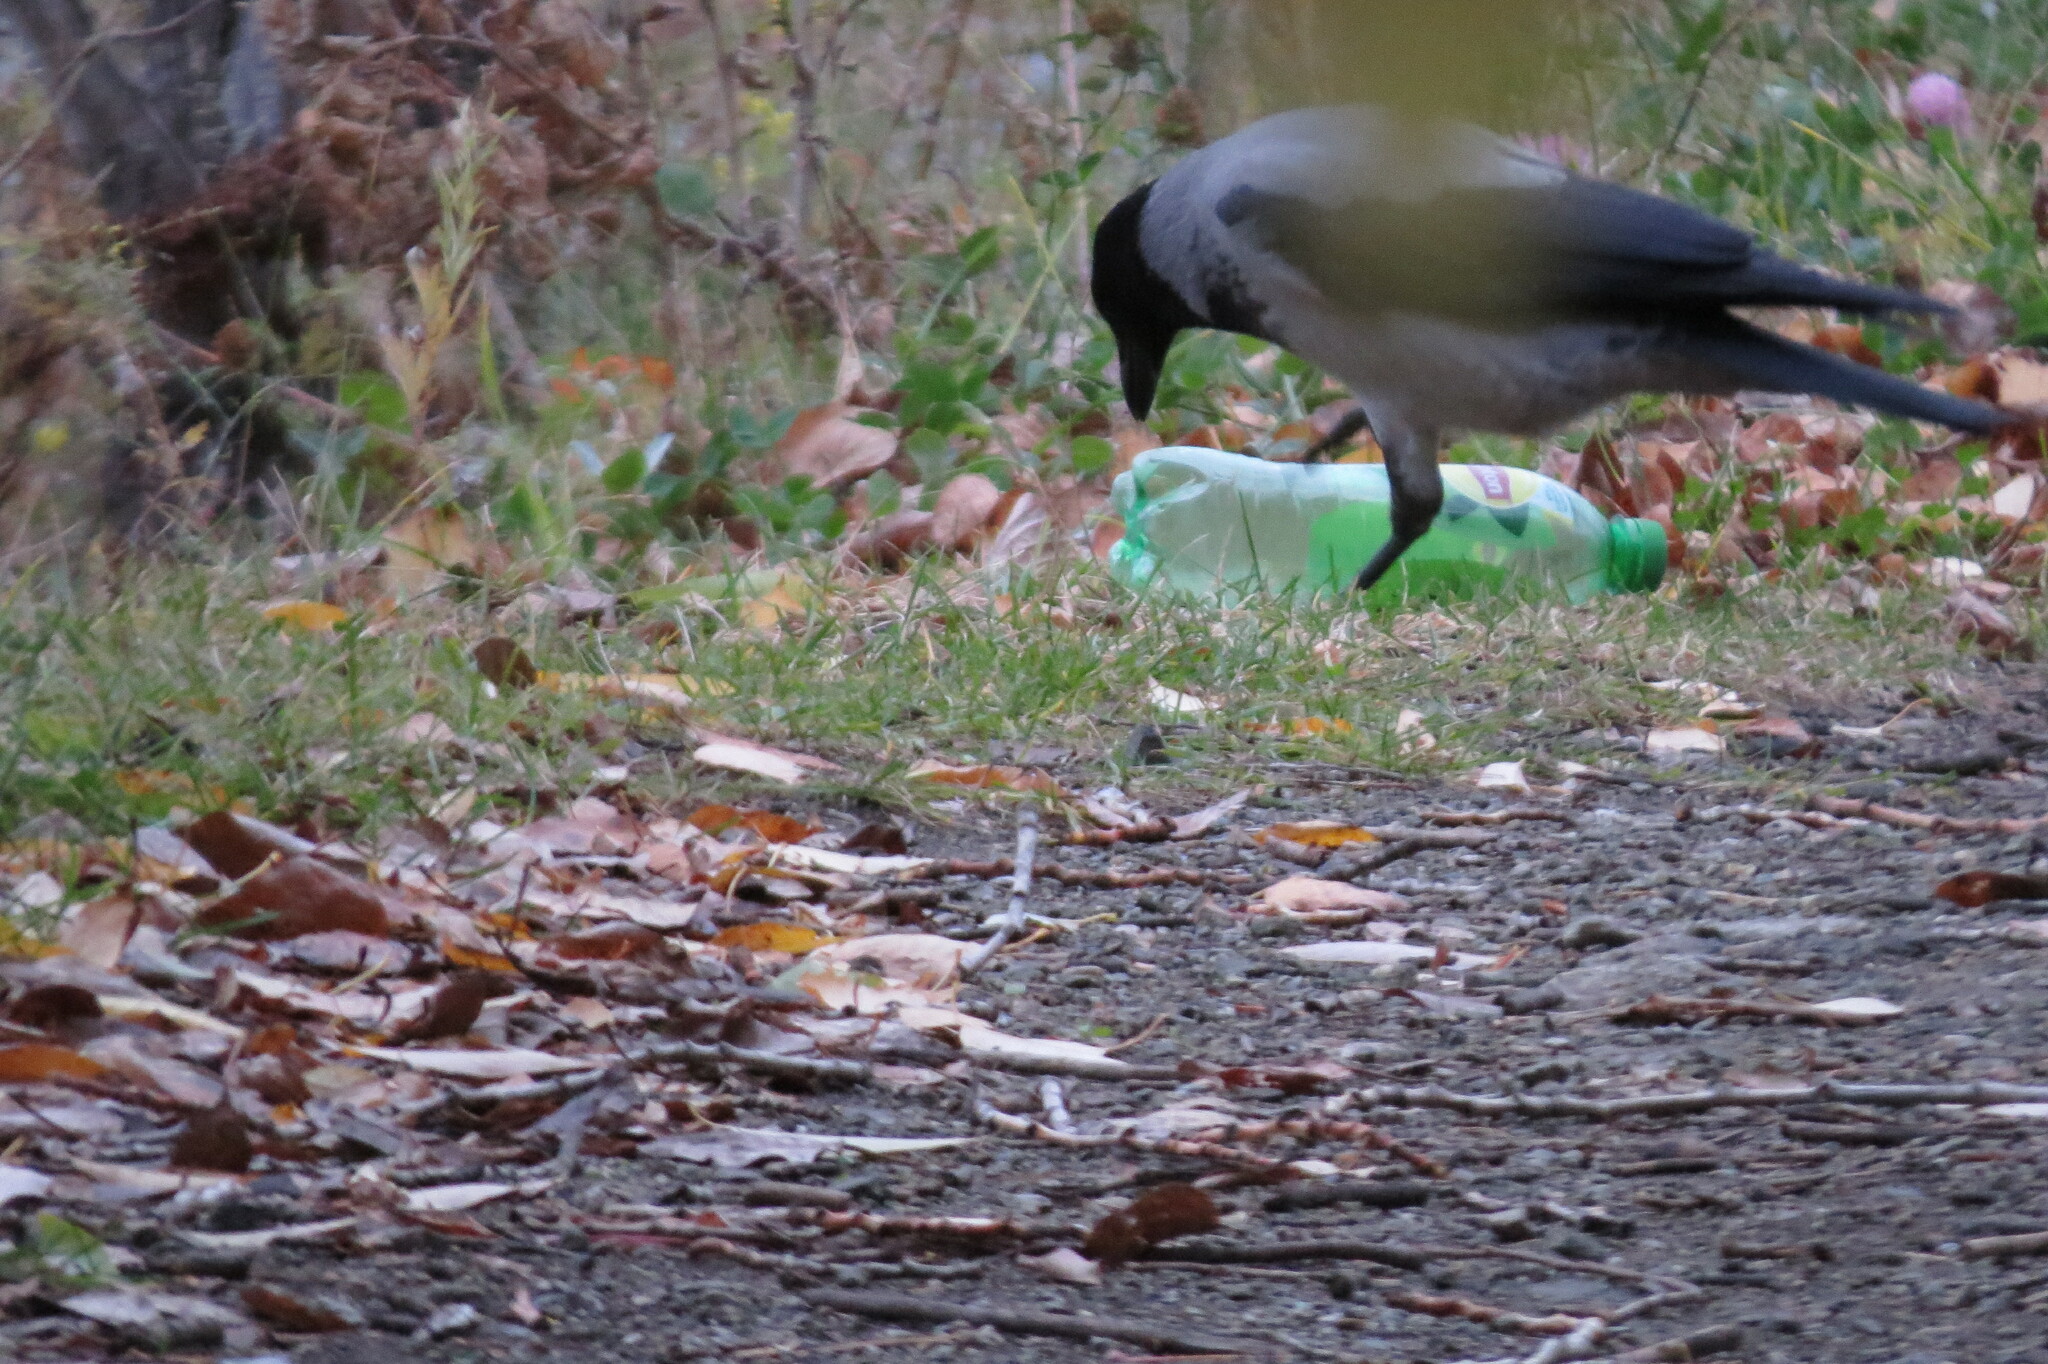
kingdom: Animalia
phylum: Chordata
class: Aves
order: Passeriformes
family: Corvidae
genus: Corvus
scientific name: Corvus cornix
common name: Hooded crow
